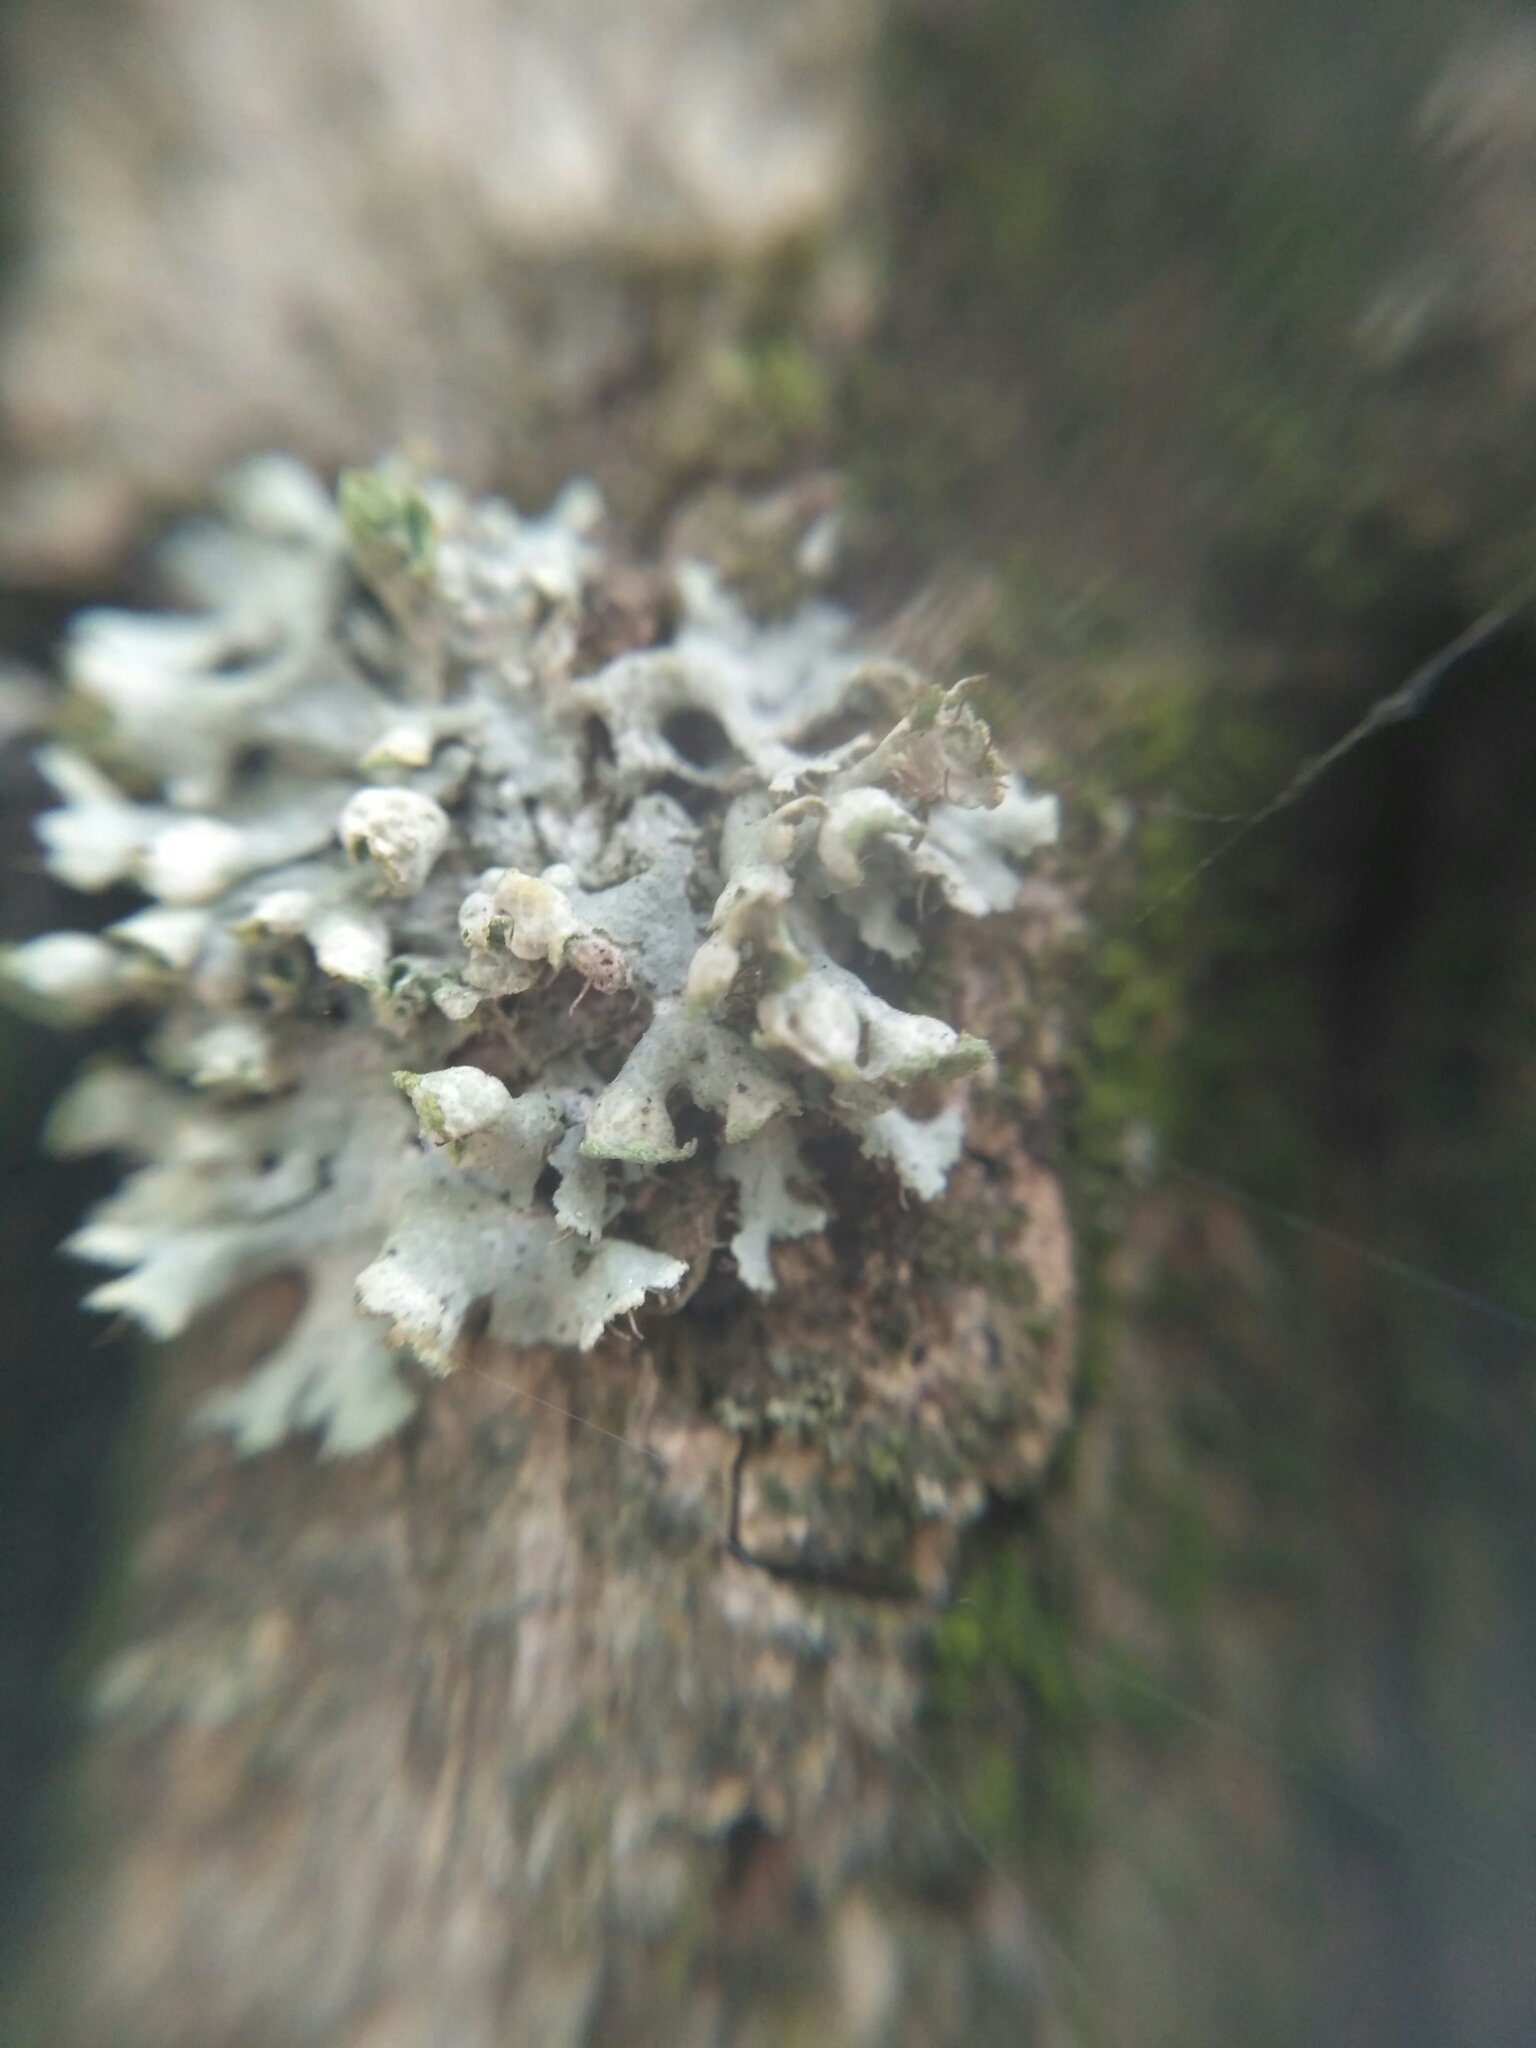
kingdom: Fungi
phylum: Ascomycota
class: Lecanoromycetes
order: Caliciales
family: Physciaceae
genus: Physcia
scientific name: Physcia adscendens
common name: Hooded rosette lichen
